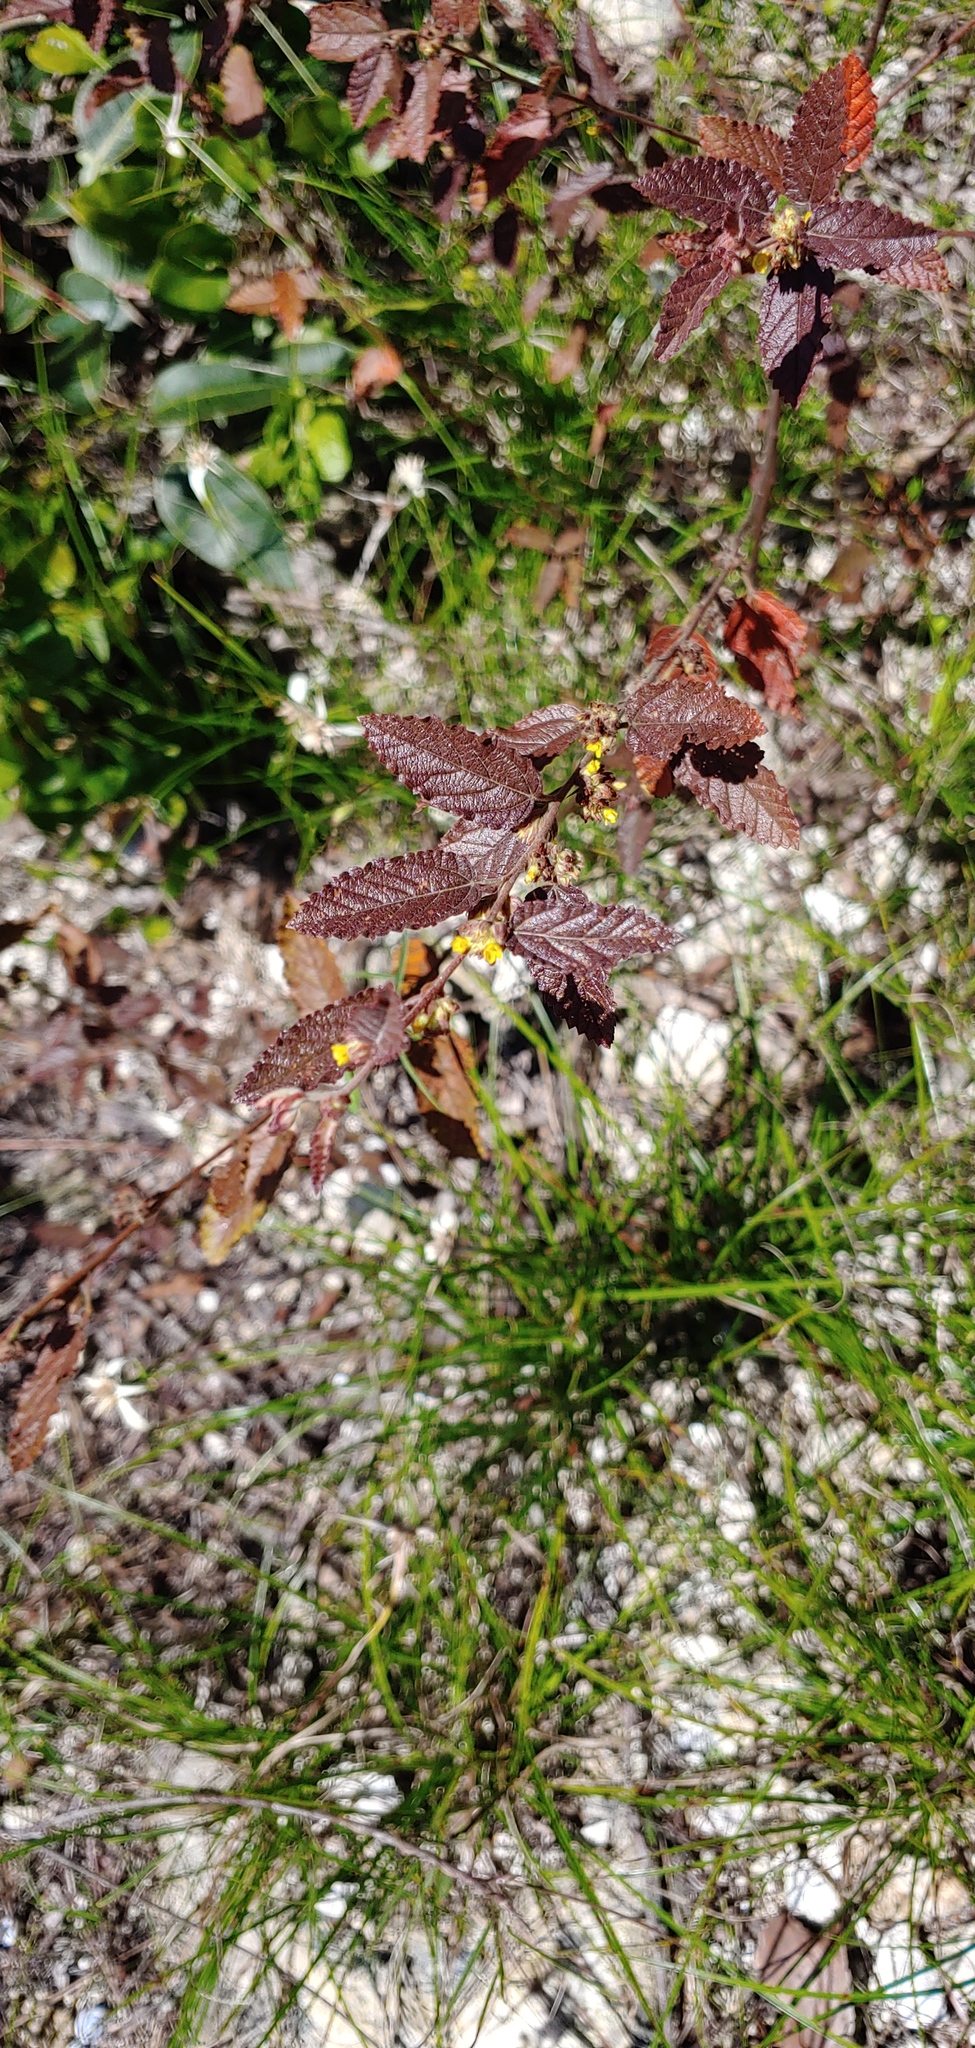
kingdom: Plantae
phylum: Tracheophyta
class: Magnoliopsida
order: Malvales
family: Malvaceae
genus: Waltheria
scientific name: Waltheria bahamensis
